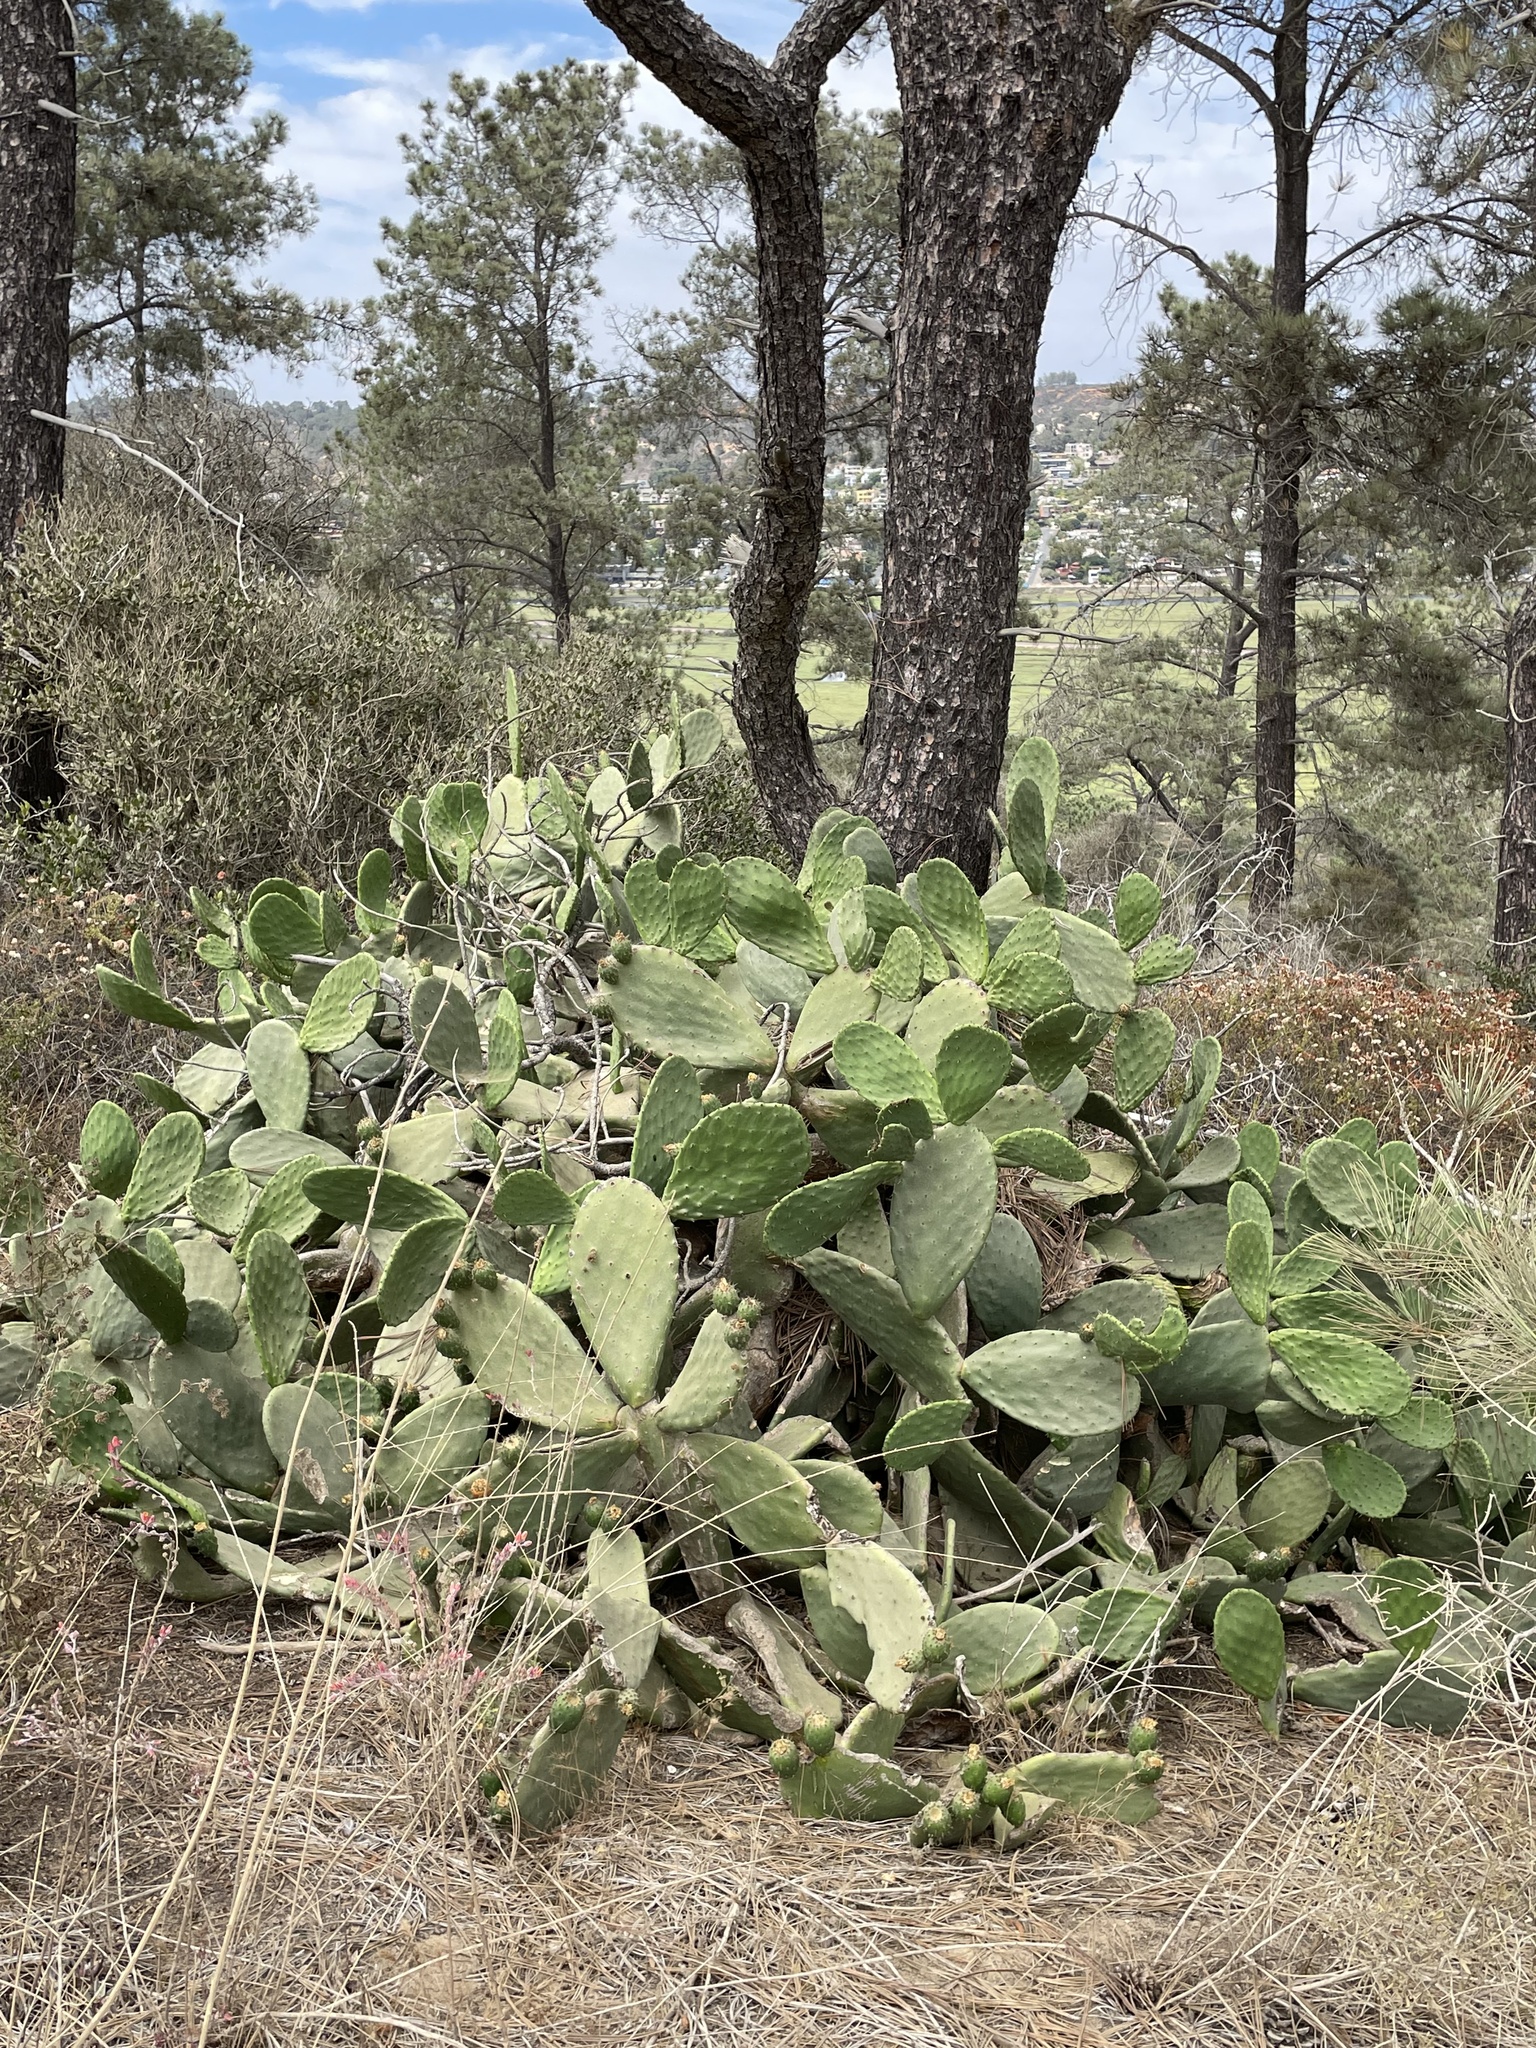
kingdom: Plantae
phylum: Tracheophyta
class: Magnoliopsida
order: Caryophyllales
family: Cactaceae
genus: Opuntia
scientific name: Opuntia ficus-indica
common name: Barbary fig
